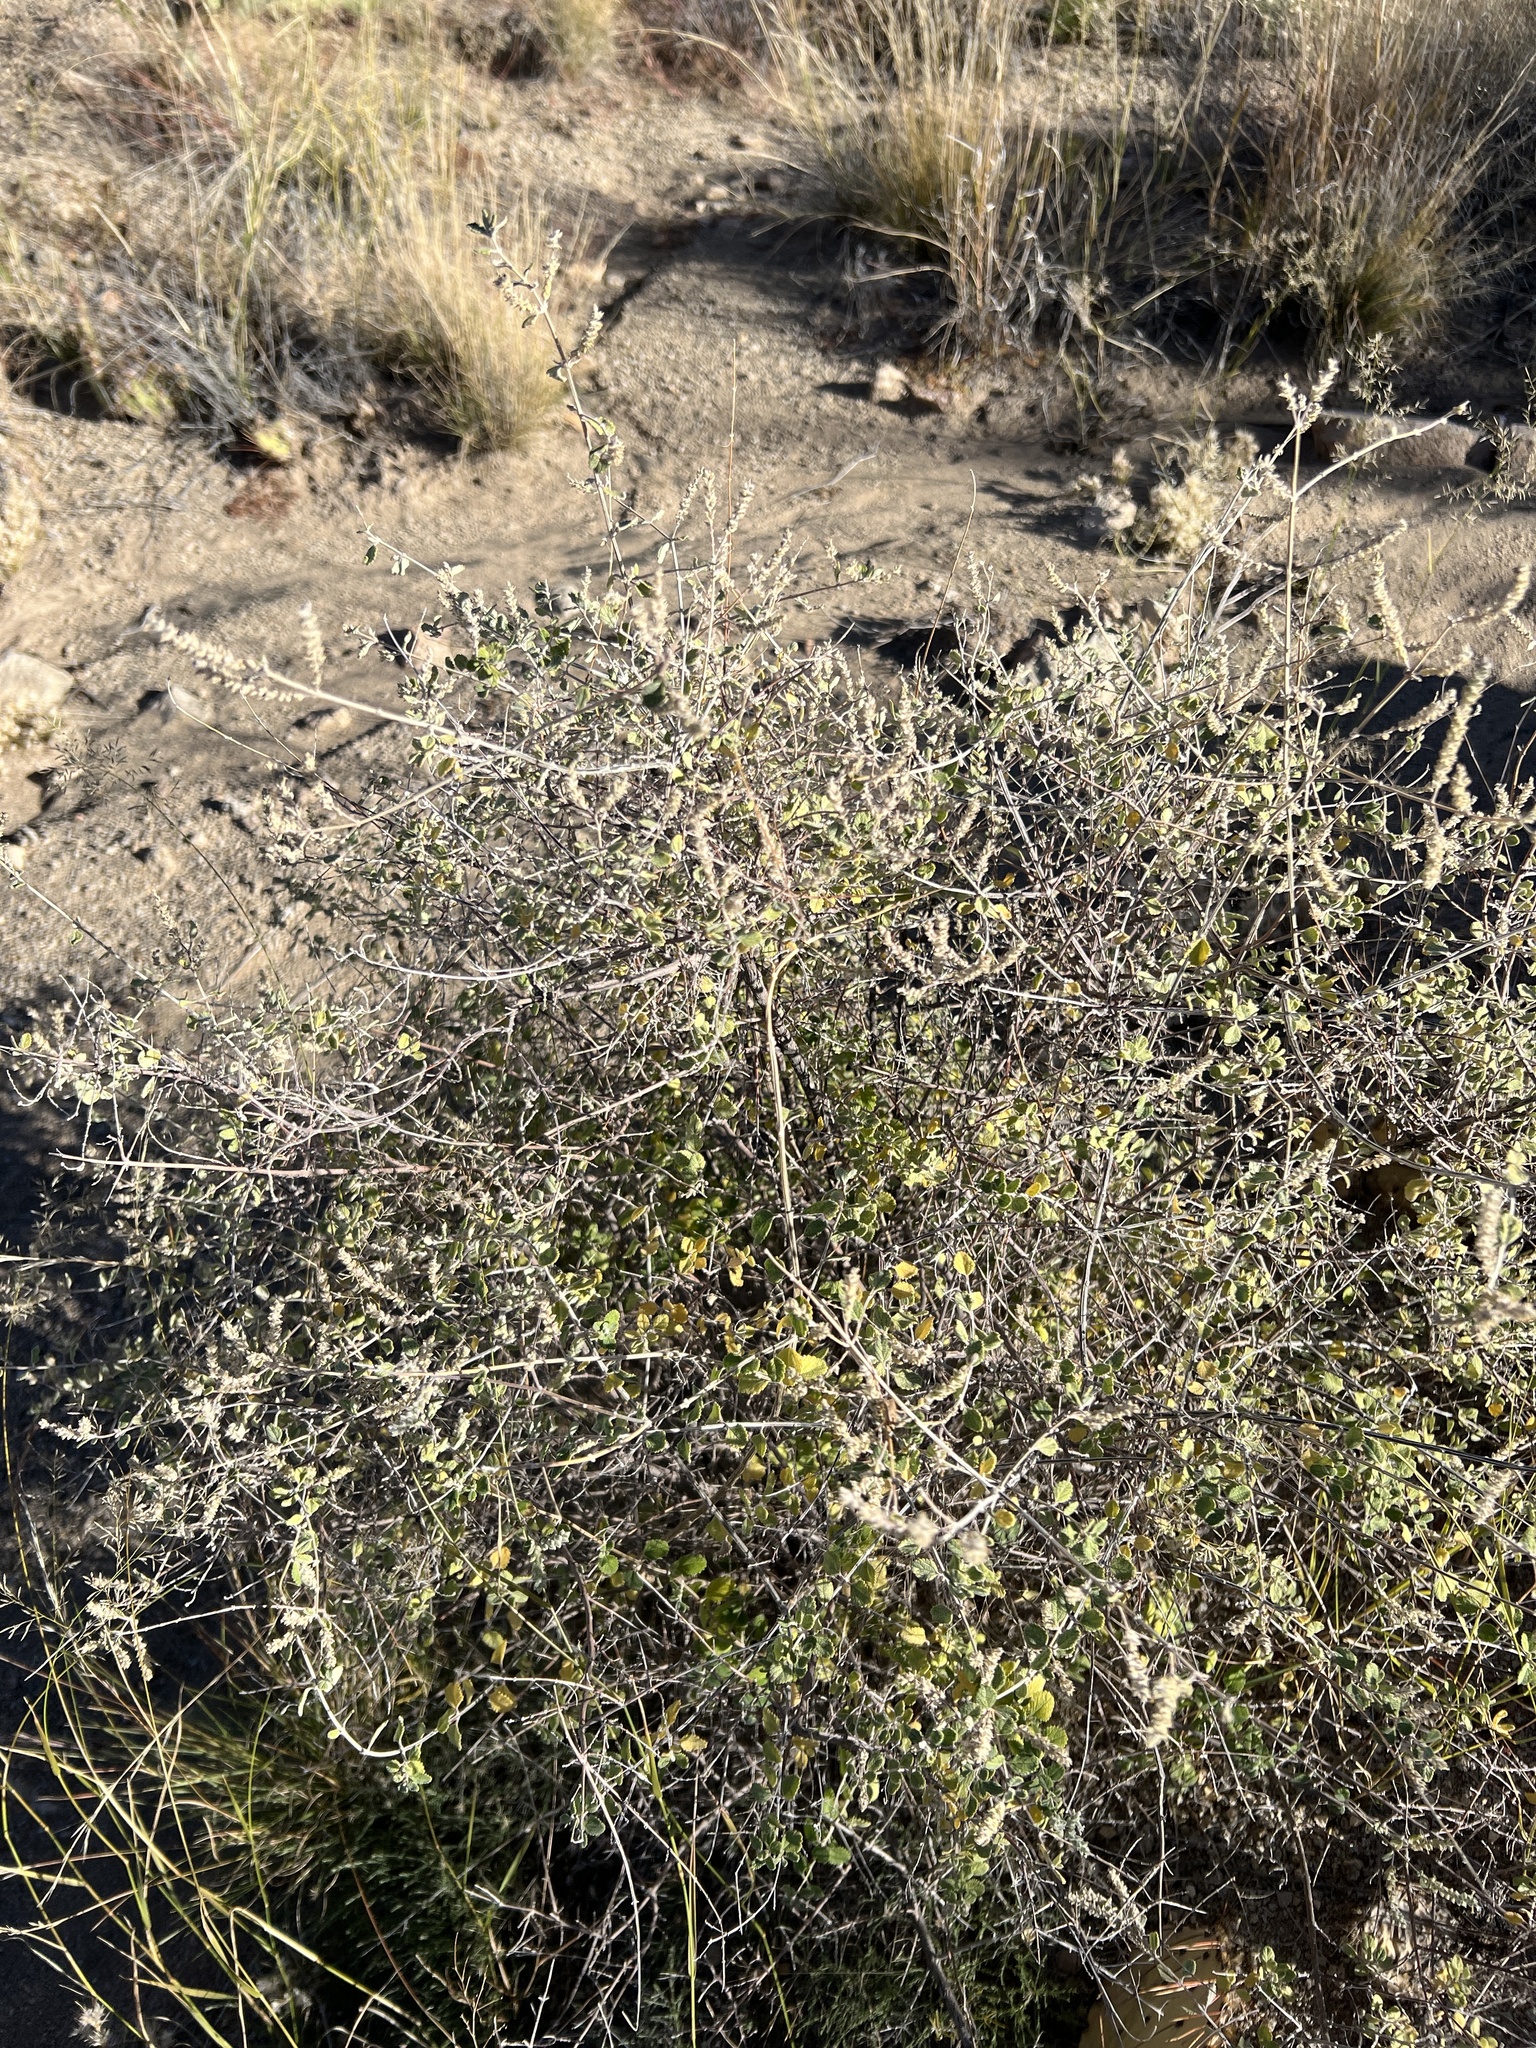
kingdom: Plantae
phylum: Tracheophyta
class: Magnoliopsida
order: Lamiales
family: Verbenaceae
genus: Aloysia
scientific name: Aloysia wrightii
